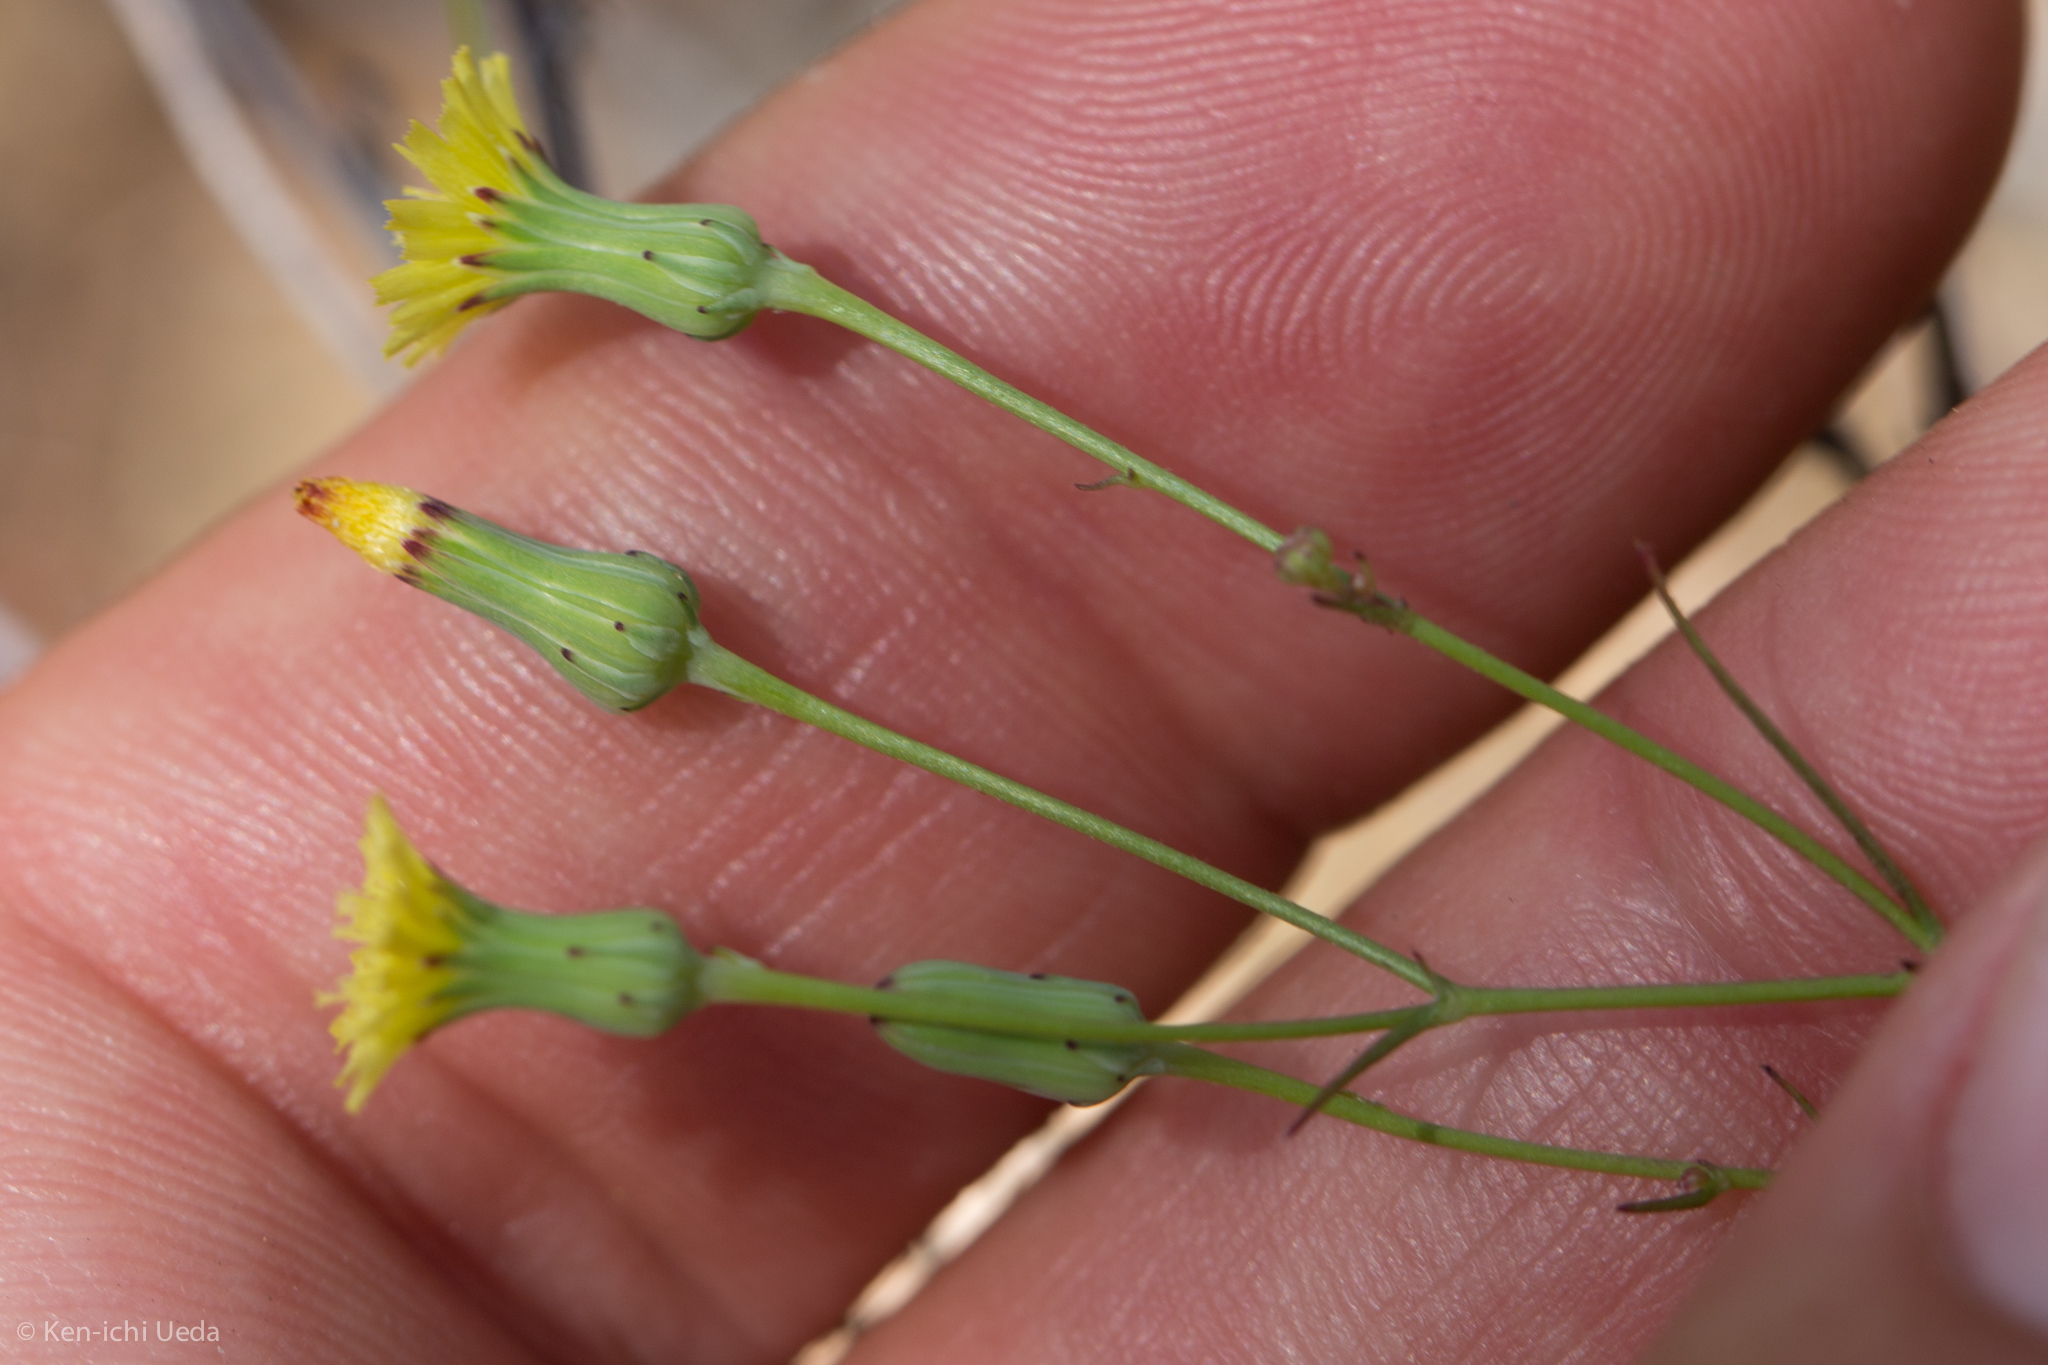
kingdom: Plantae
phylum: Tracheophyta
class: Magnoliopsida
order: Asterales
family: Asteraceae
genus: Malacothrix
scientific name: Malacothrix clevelandii
